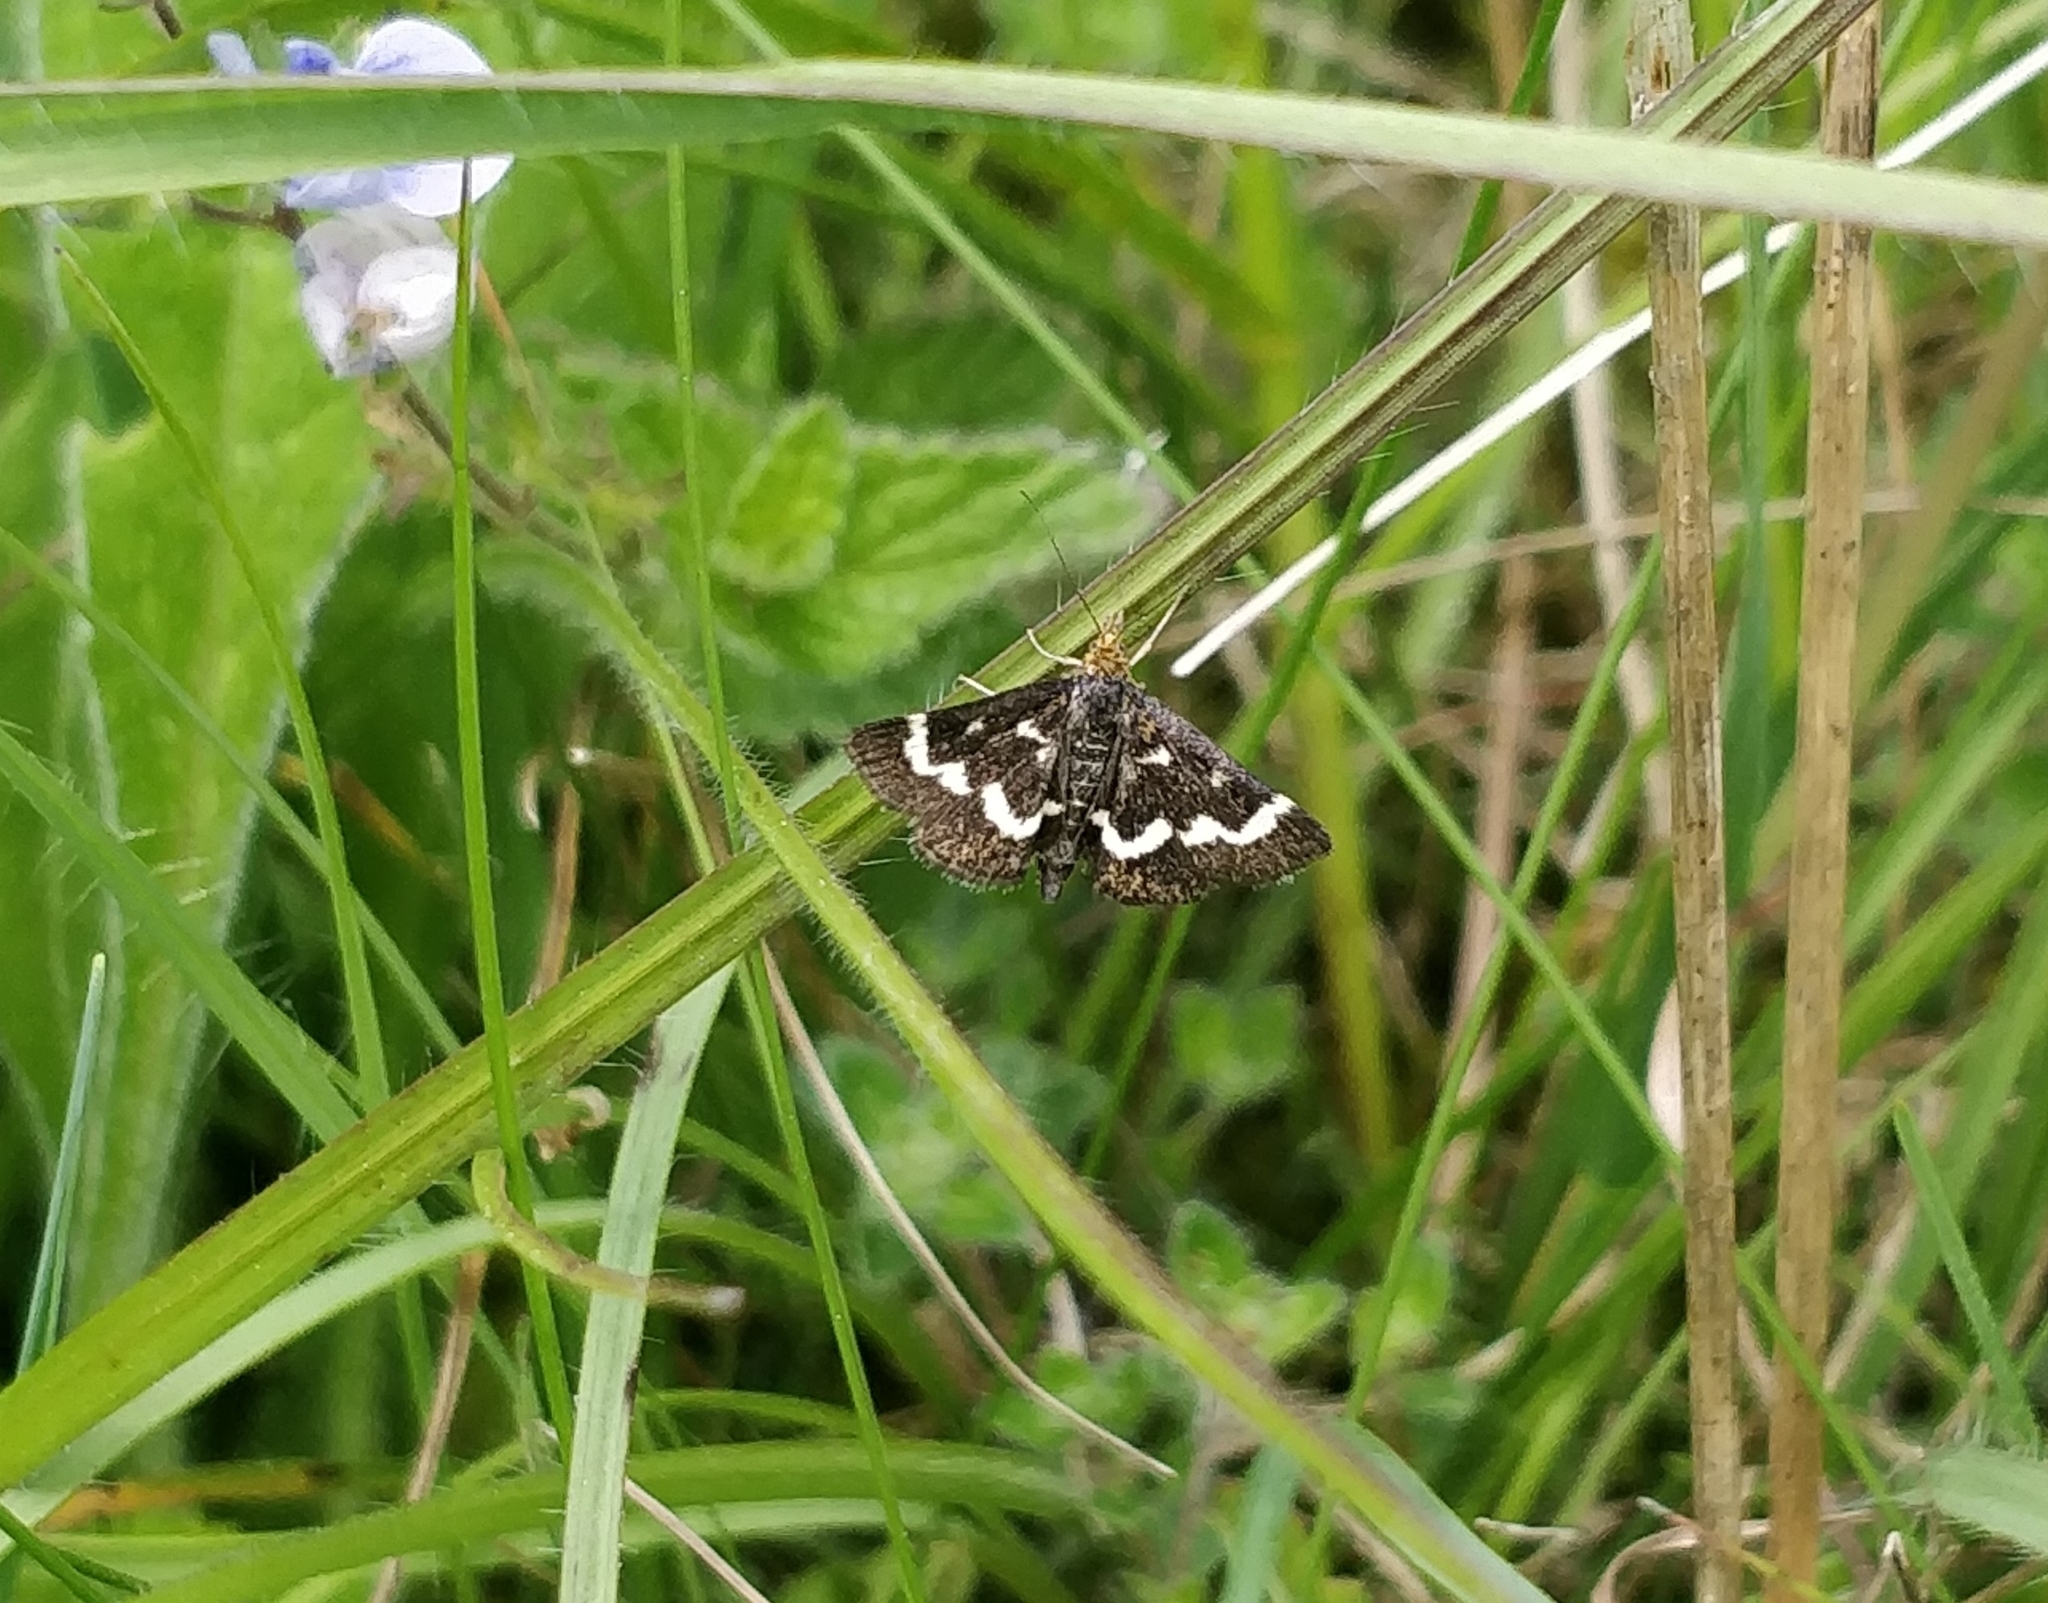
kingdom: Animalia
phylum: Arthropoda
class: Insecta
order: Lepidoptera
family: Crambidae
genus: Pyrausta
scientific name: Pyrausta nigrata
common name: Wavy-barred sable
